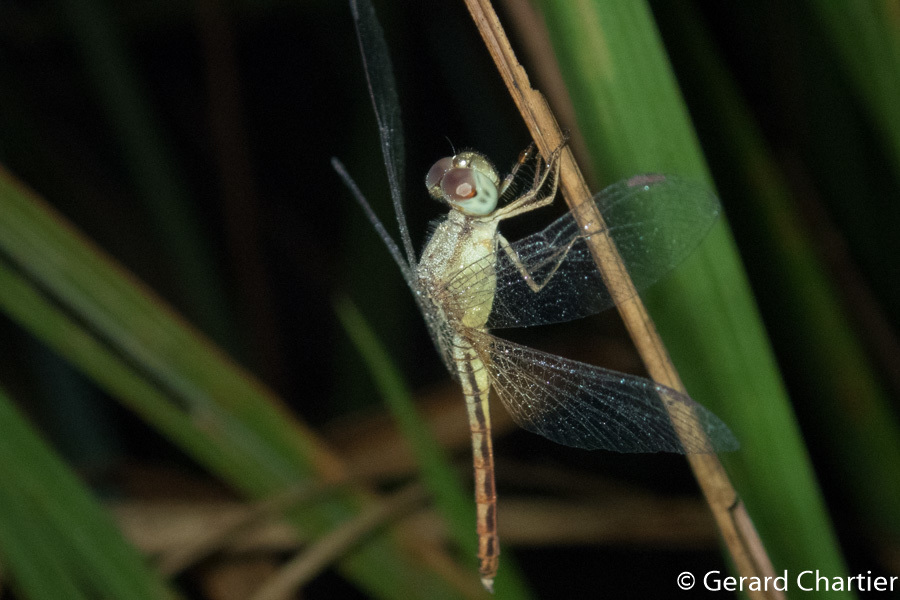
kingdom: Animalia
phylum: Arthropoda
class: Insecta
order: Odonata
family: Libellulidae
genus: Neurothemis
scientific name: Neurothemis intermedia
